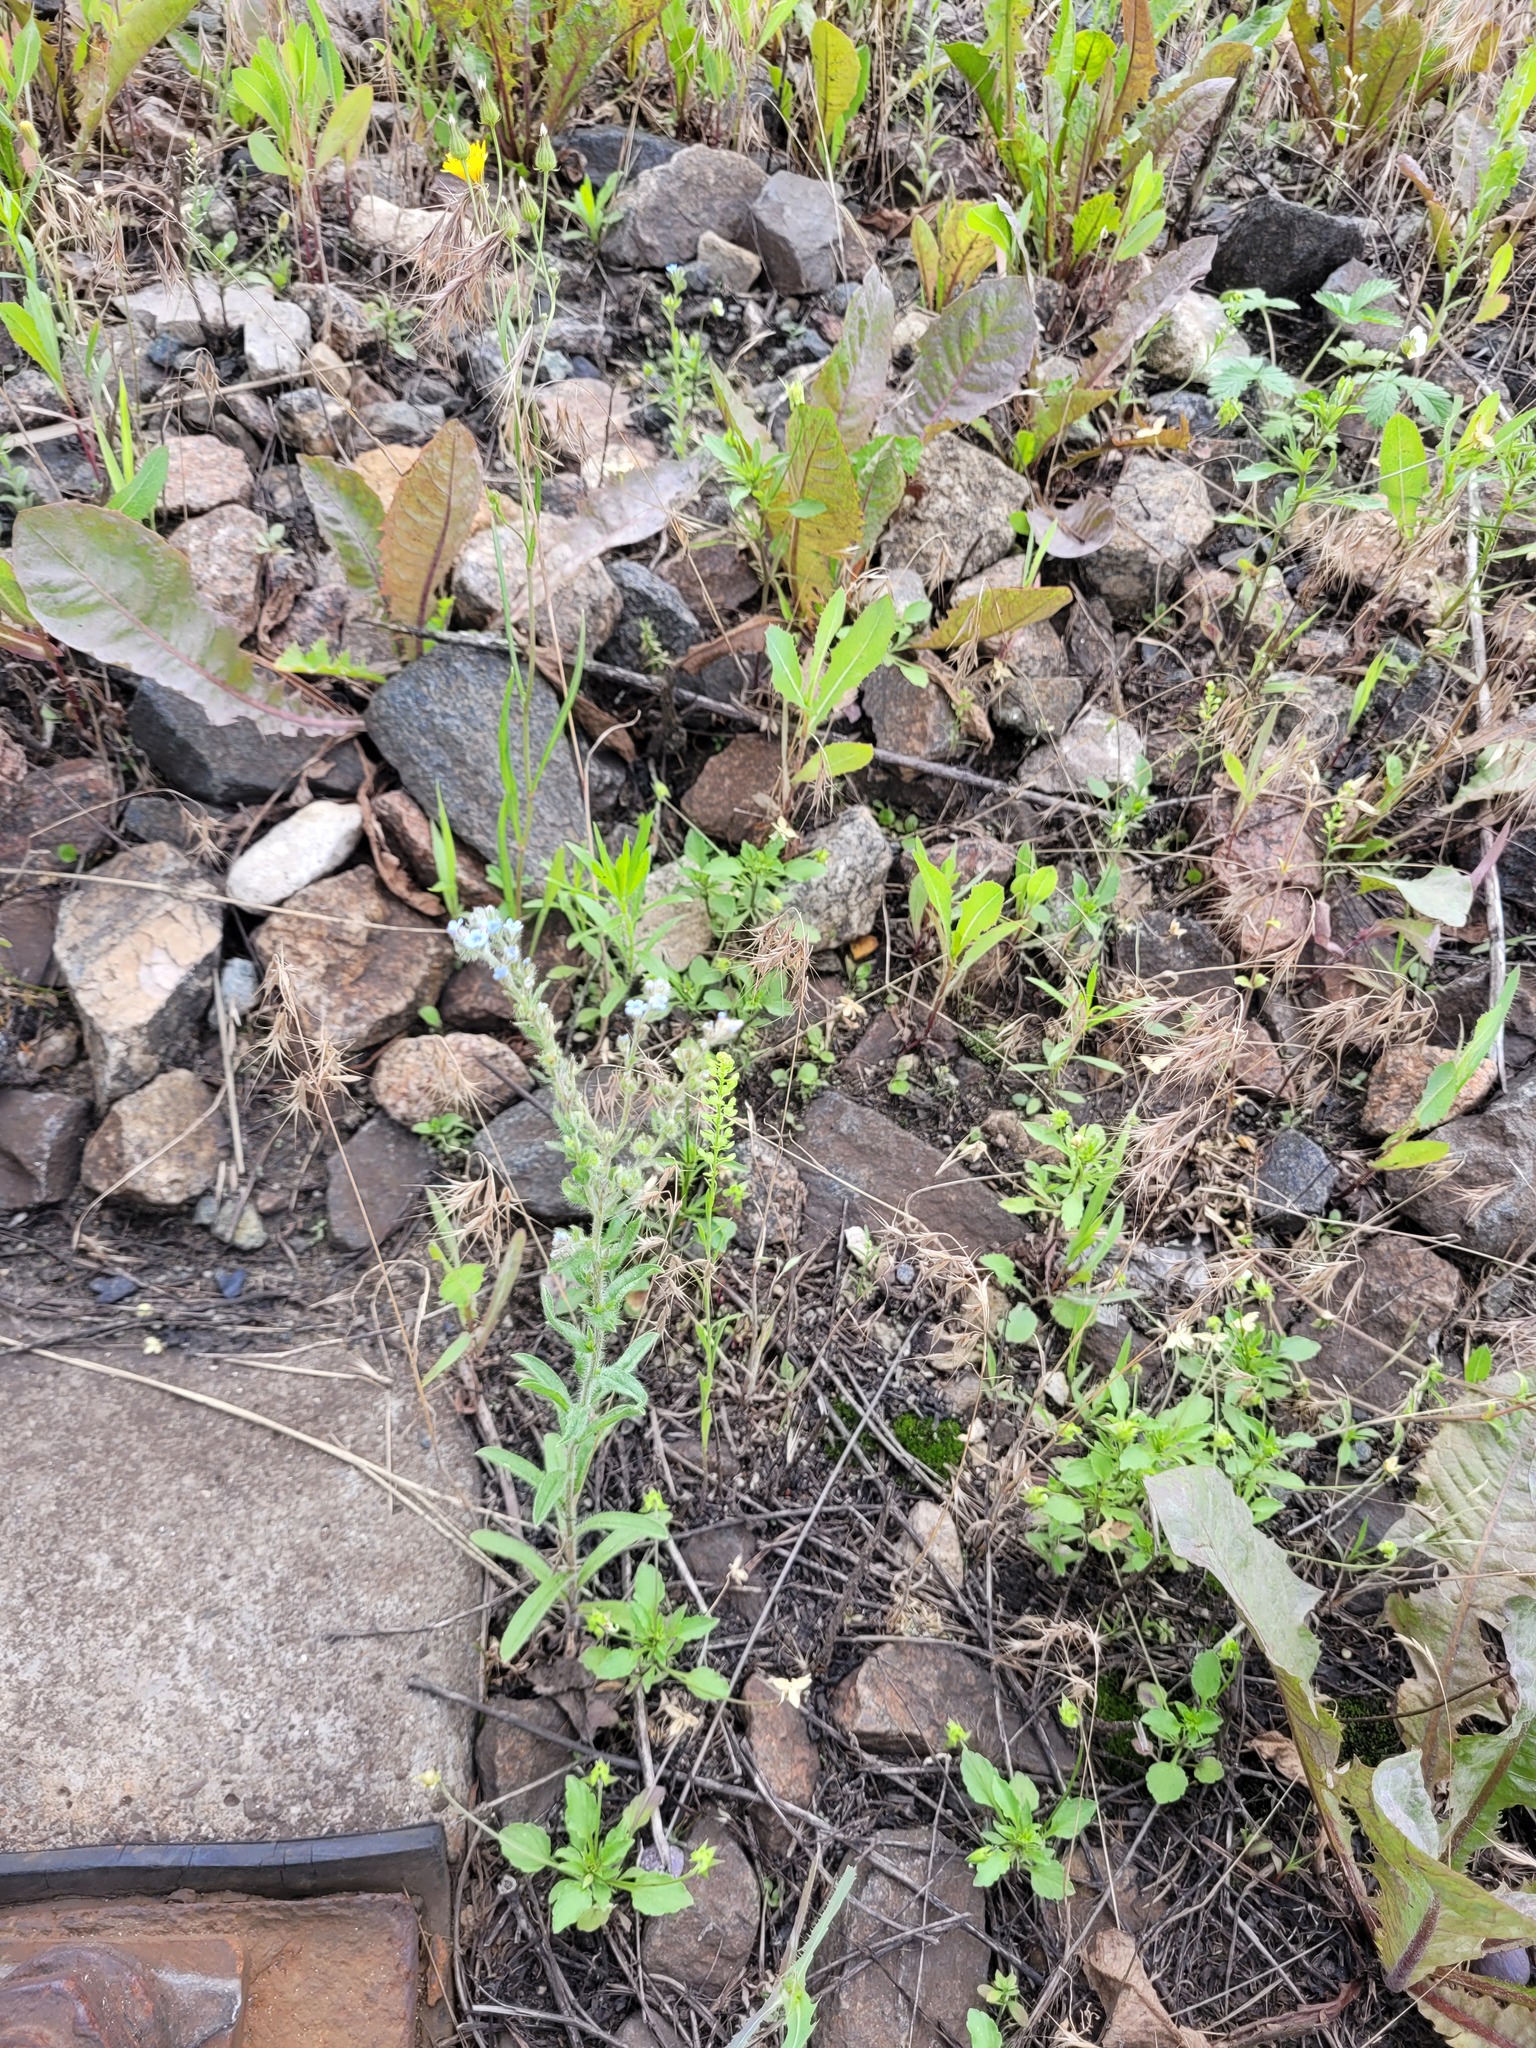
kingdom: Plantae
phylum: Tracheophyta
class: Magnoliopsida
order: Boraginales
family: Boraginaceae
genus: Lappula
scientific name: Lappula squarrosa
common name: European stickseed
